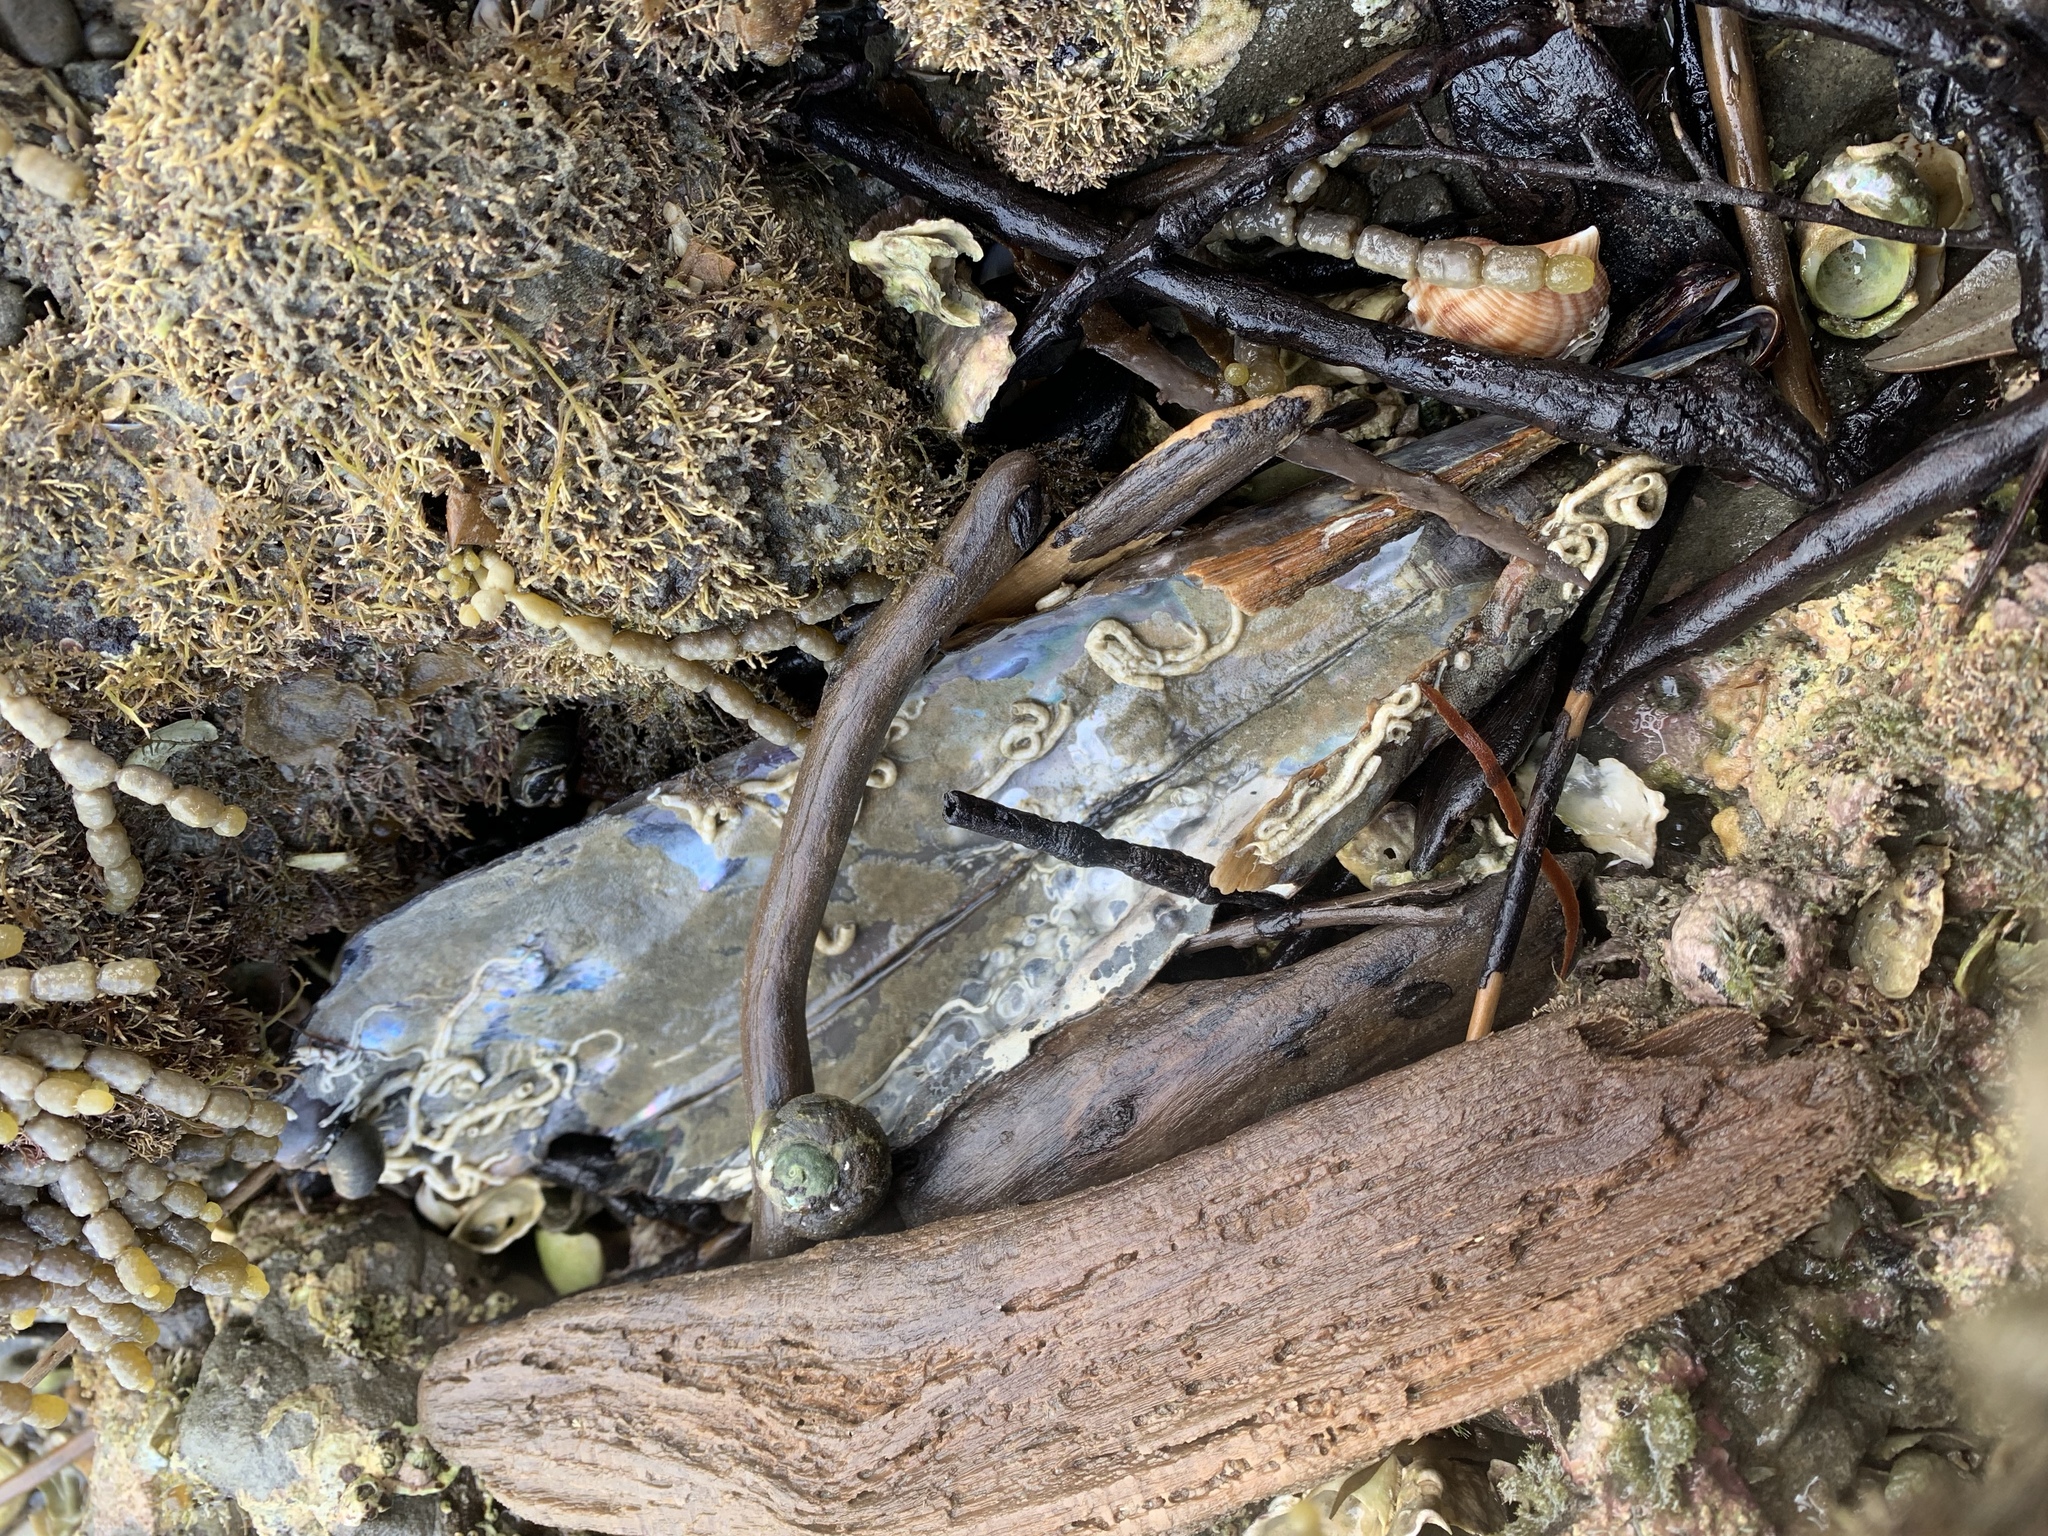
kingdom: Animalia
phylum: Mollusca
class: Bivalvia
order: Ostreida
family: Pinnidae
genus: Atrina
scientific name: Atrina zelandica
